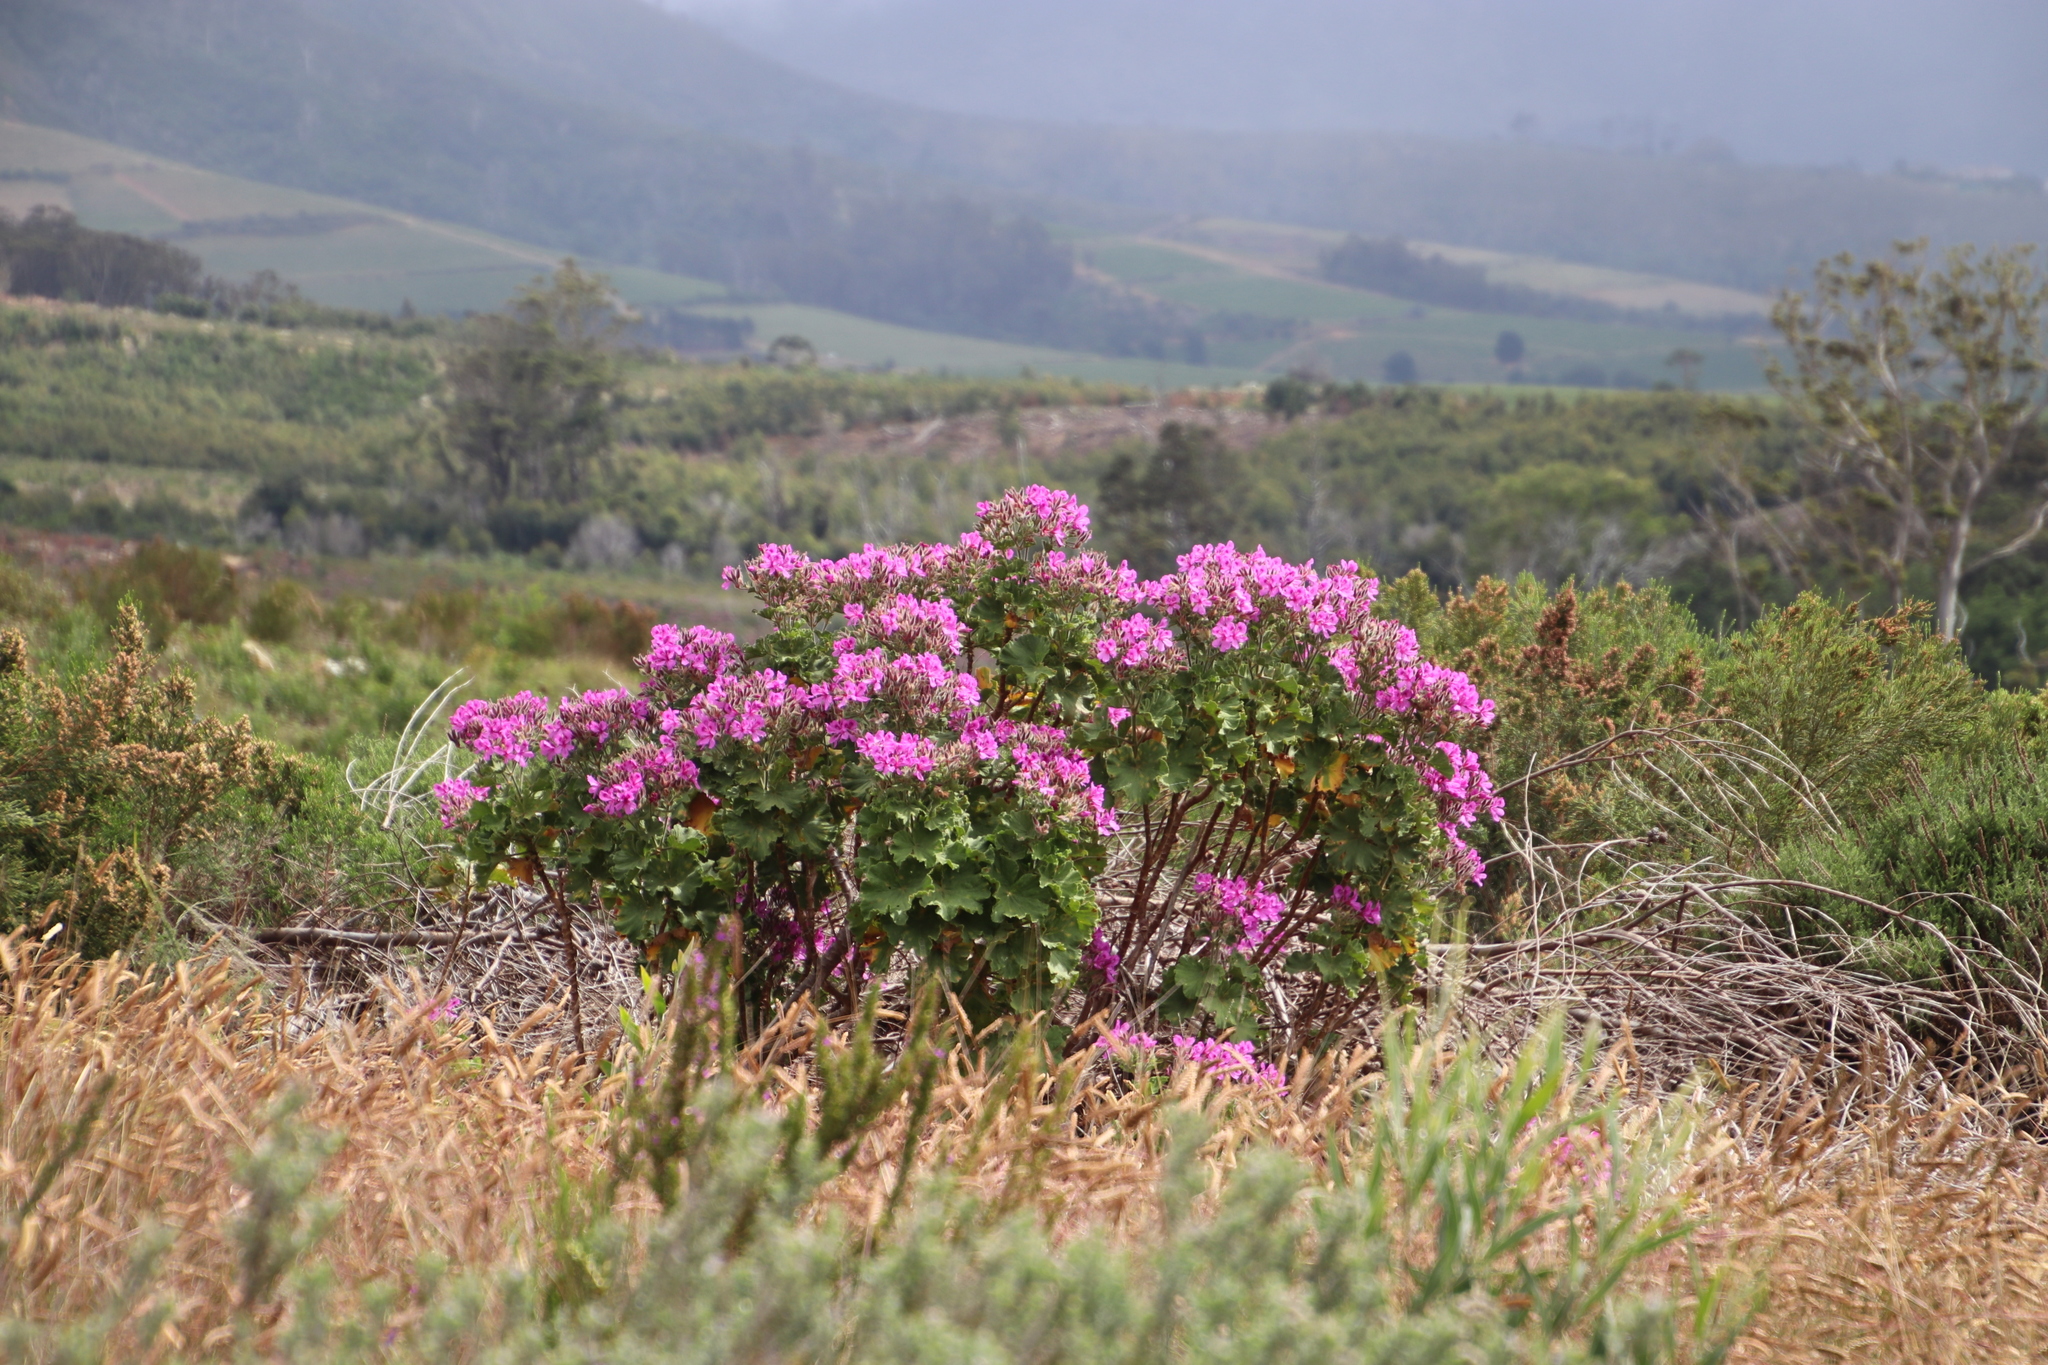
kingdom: Plantae
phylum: Tracheophyta
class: Magnoliopsida
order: Geraniales
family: Geraniaceae
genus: Pelargonium
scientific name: Pelargonium cucullatum
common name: Tree pelargonium
